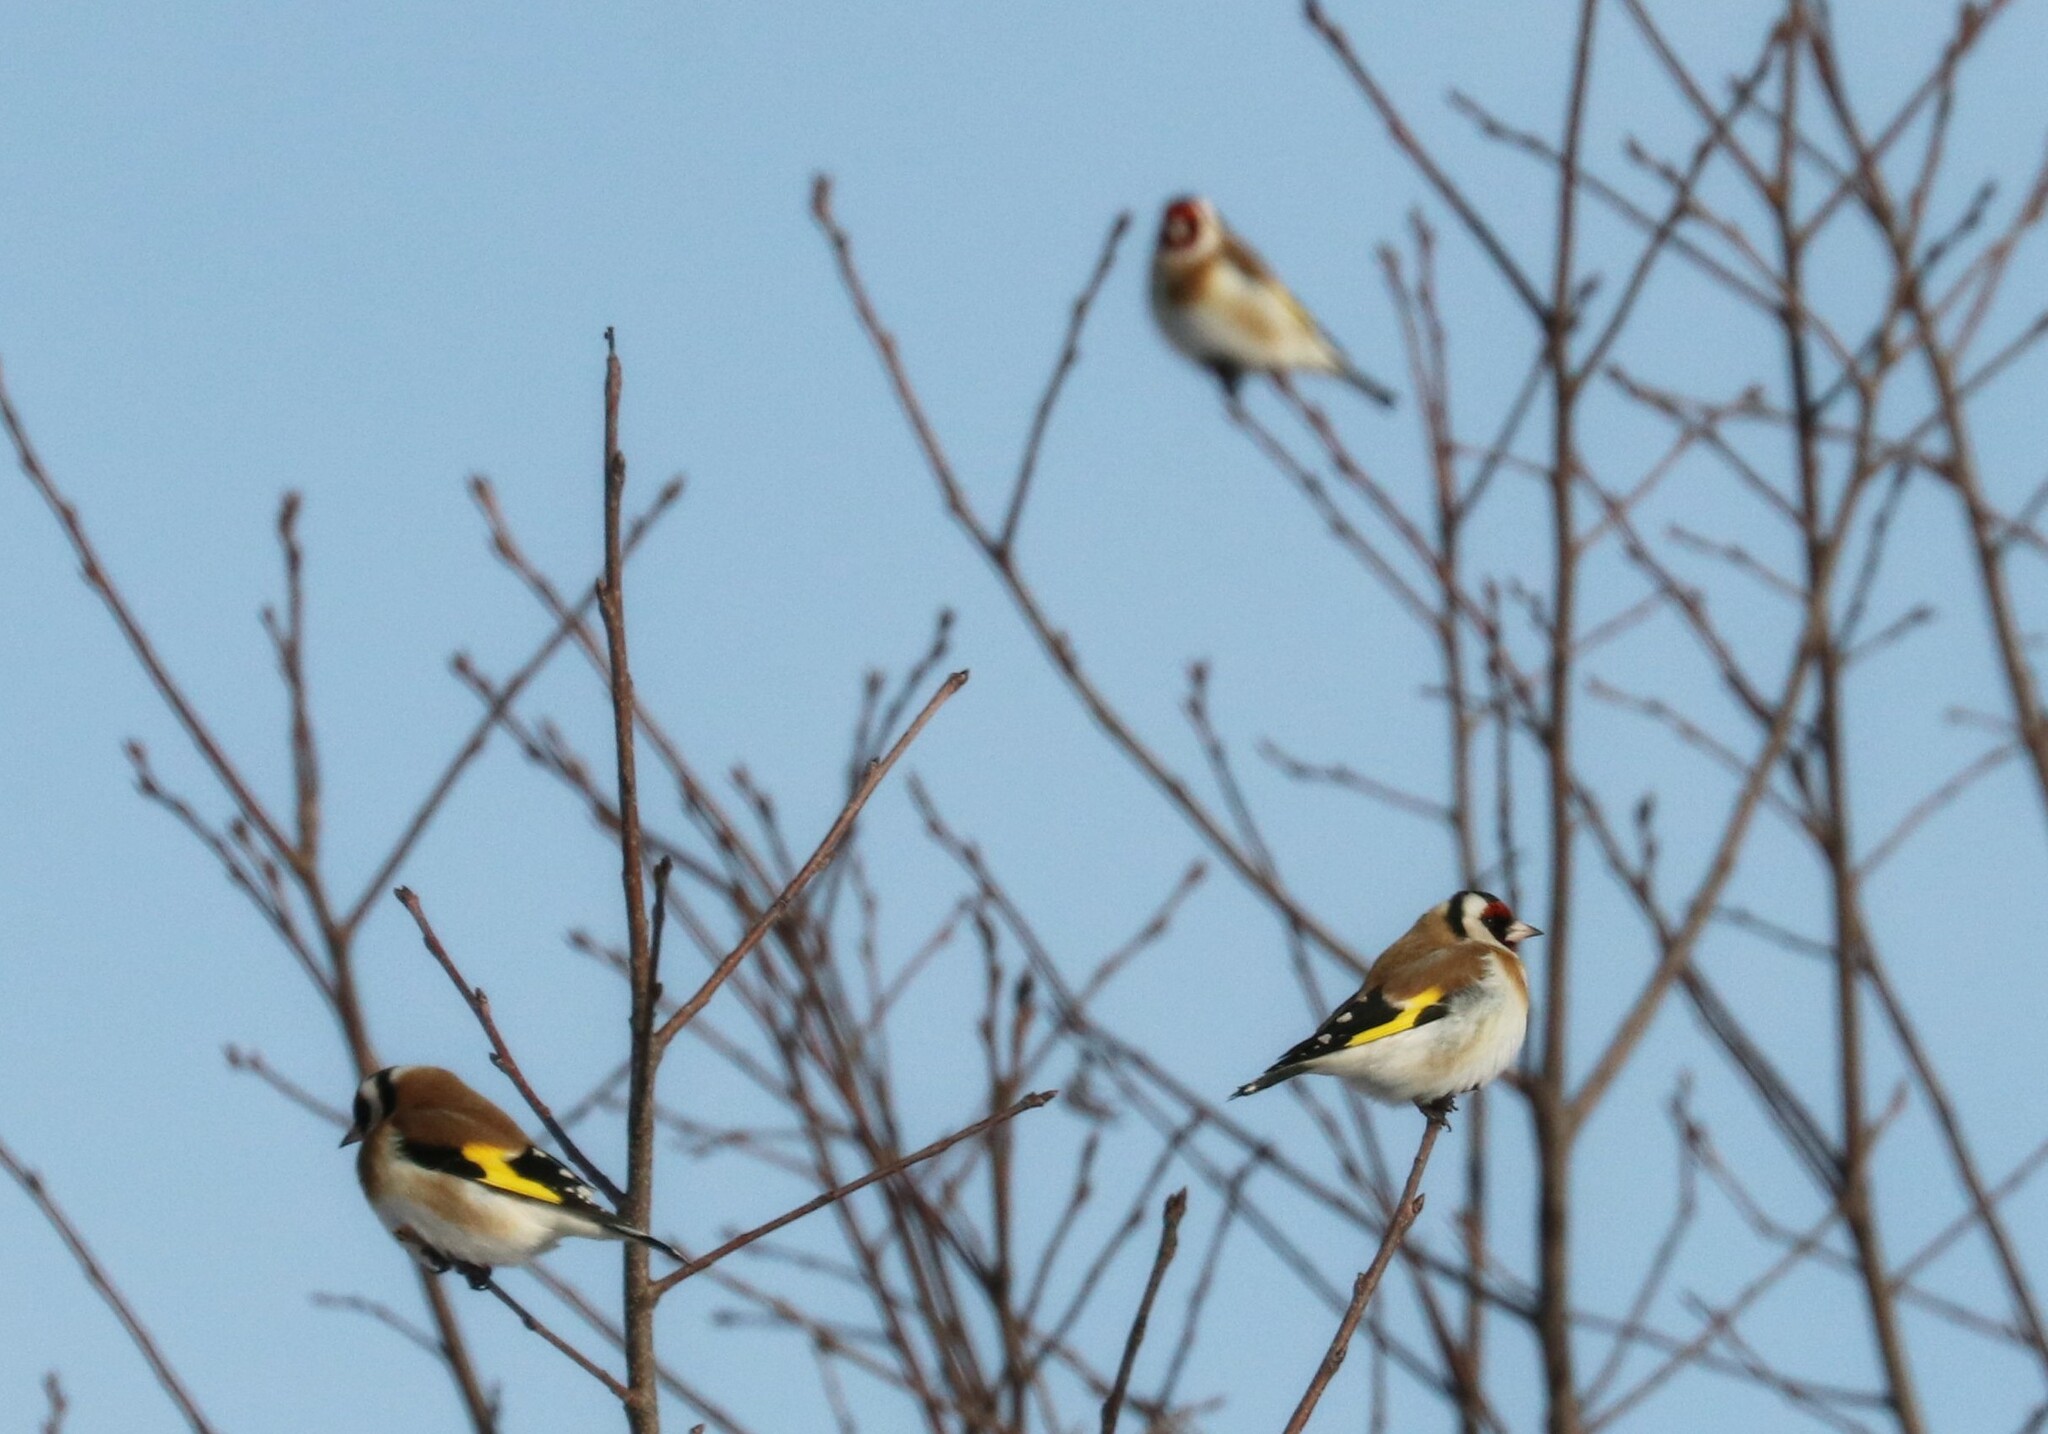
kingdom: Animalia
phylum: Chordata
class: Aves
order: Passeriformes
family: Fringillidae
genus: Carduelis
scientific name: Carduelis carduelis
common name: European goldfinch
